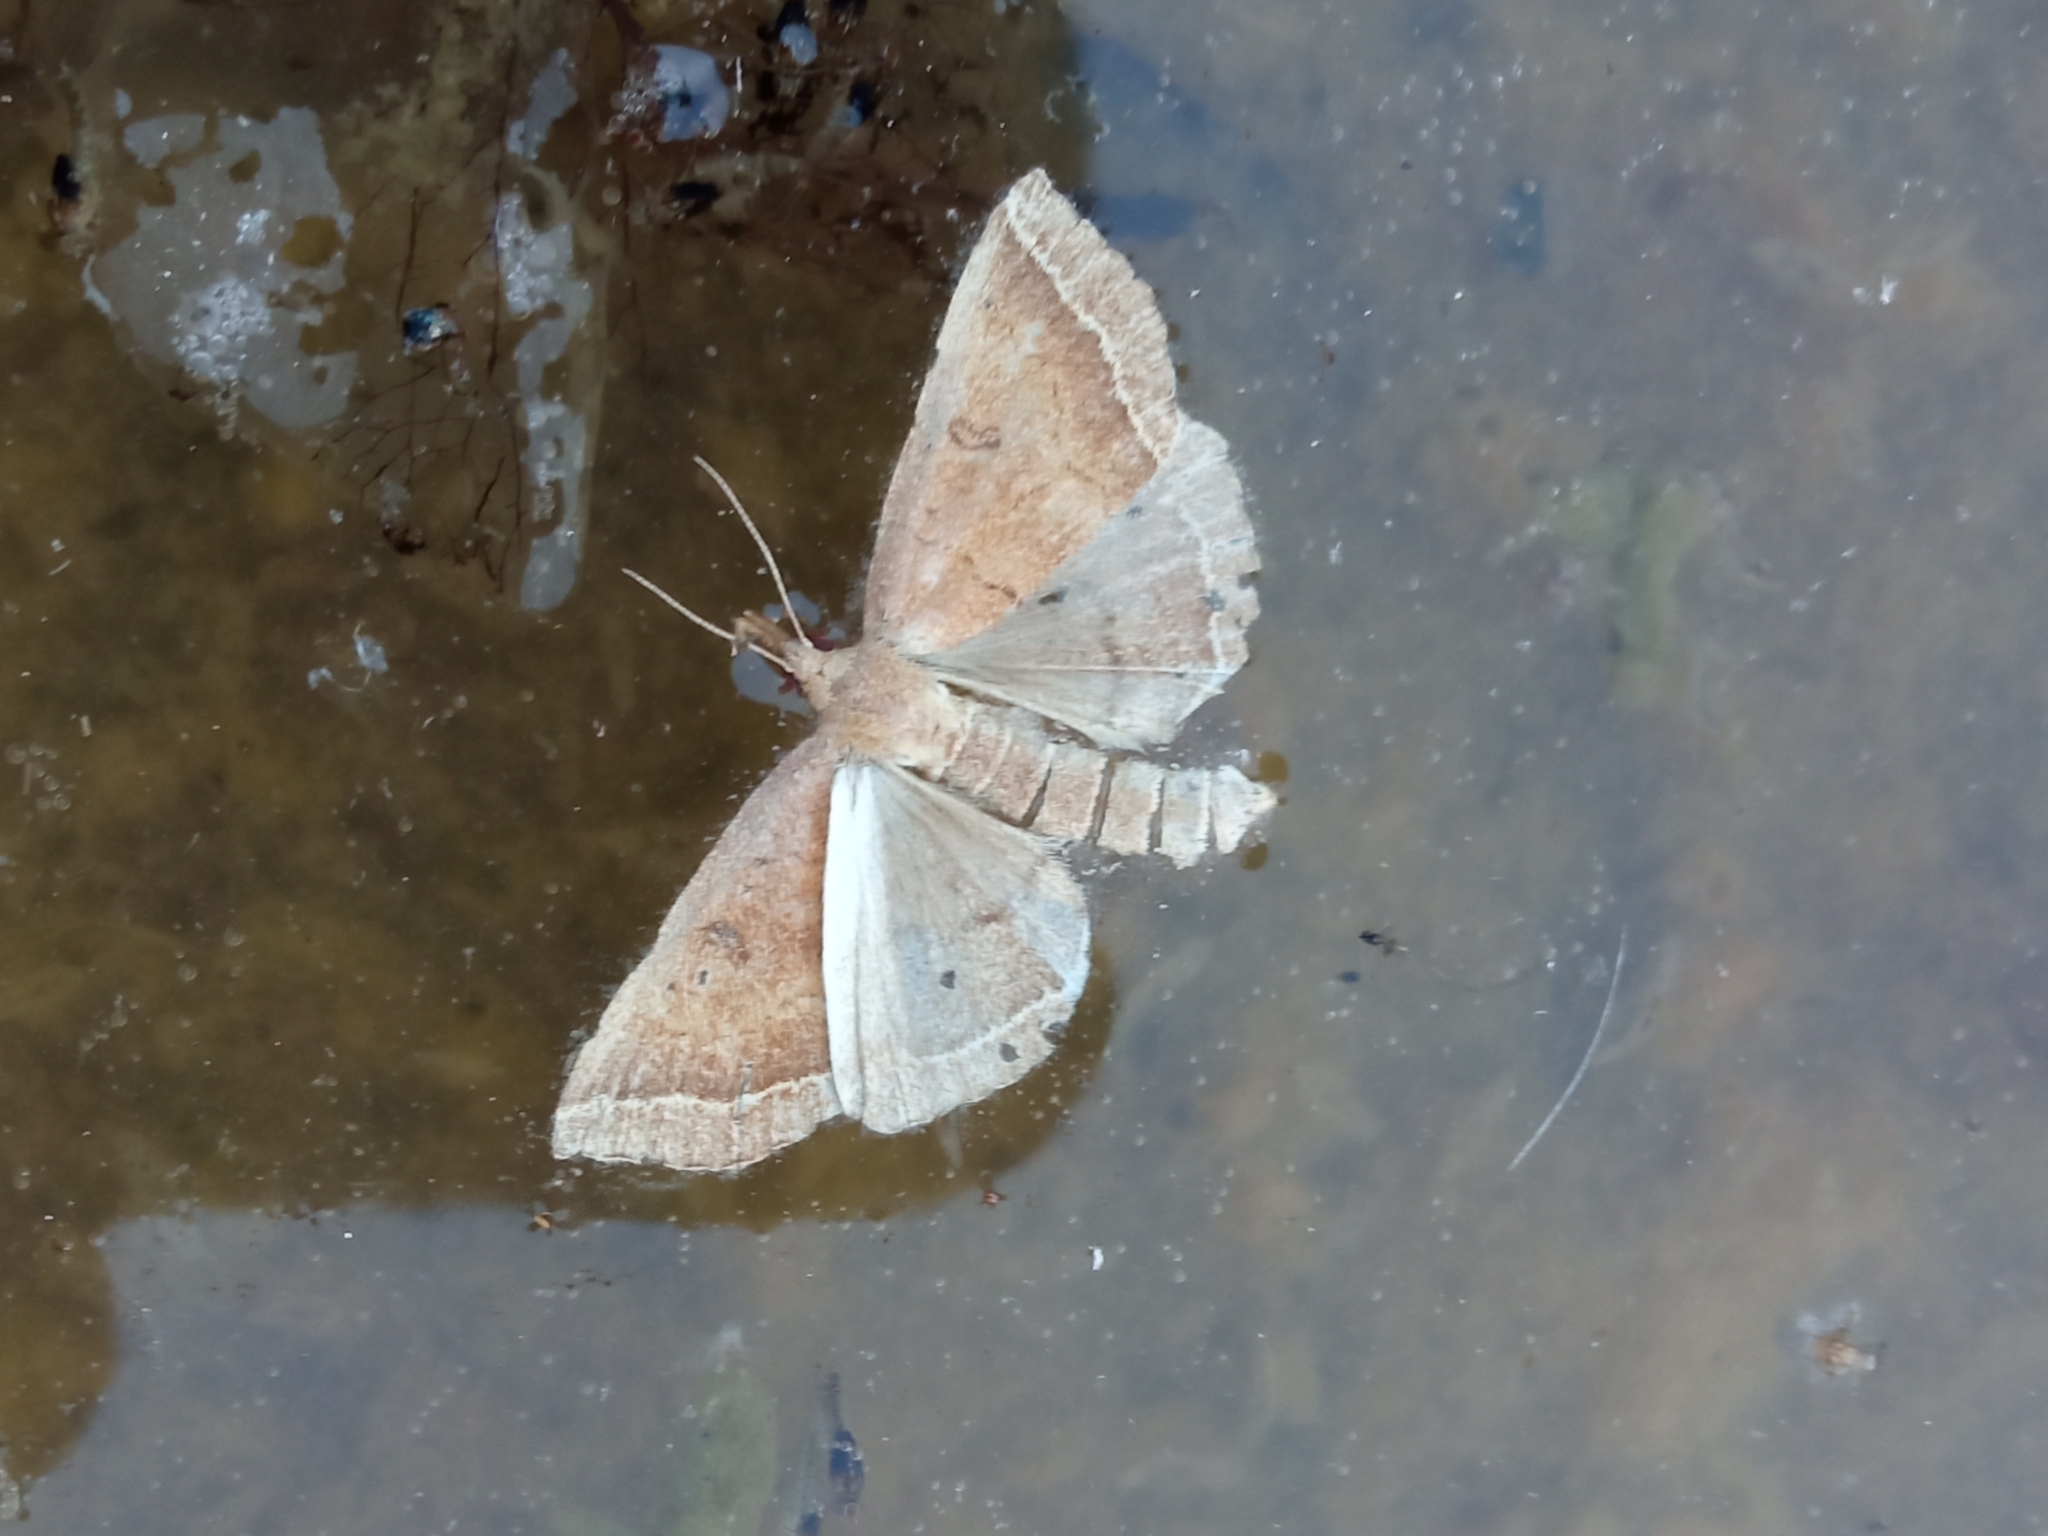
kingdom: Animalia
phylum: Arthropoda
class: Insecta
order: Lepidoptera
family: Erebidae
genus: Pechipogo
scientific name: Pechipogo plumigeralis
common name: Plumed fan-foot
